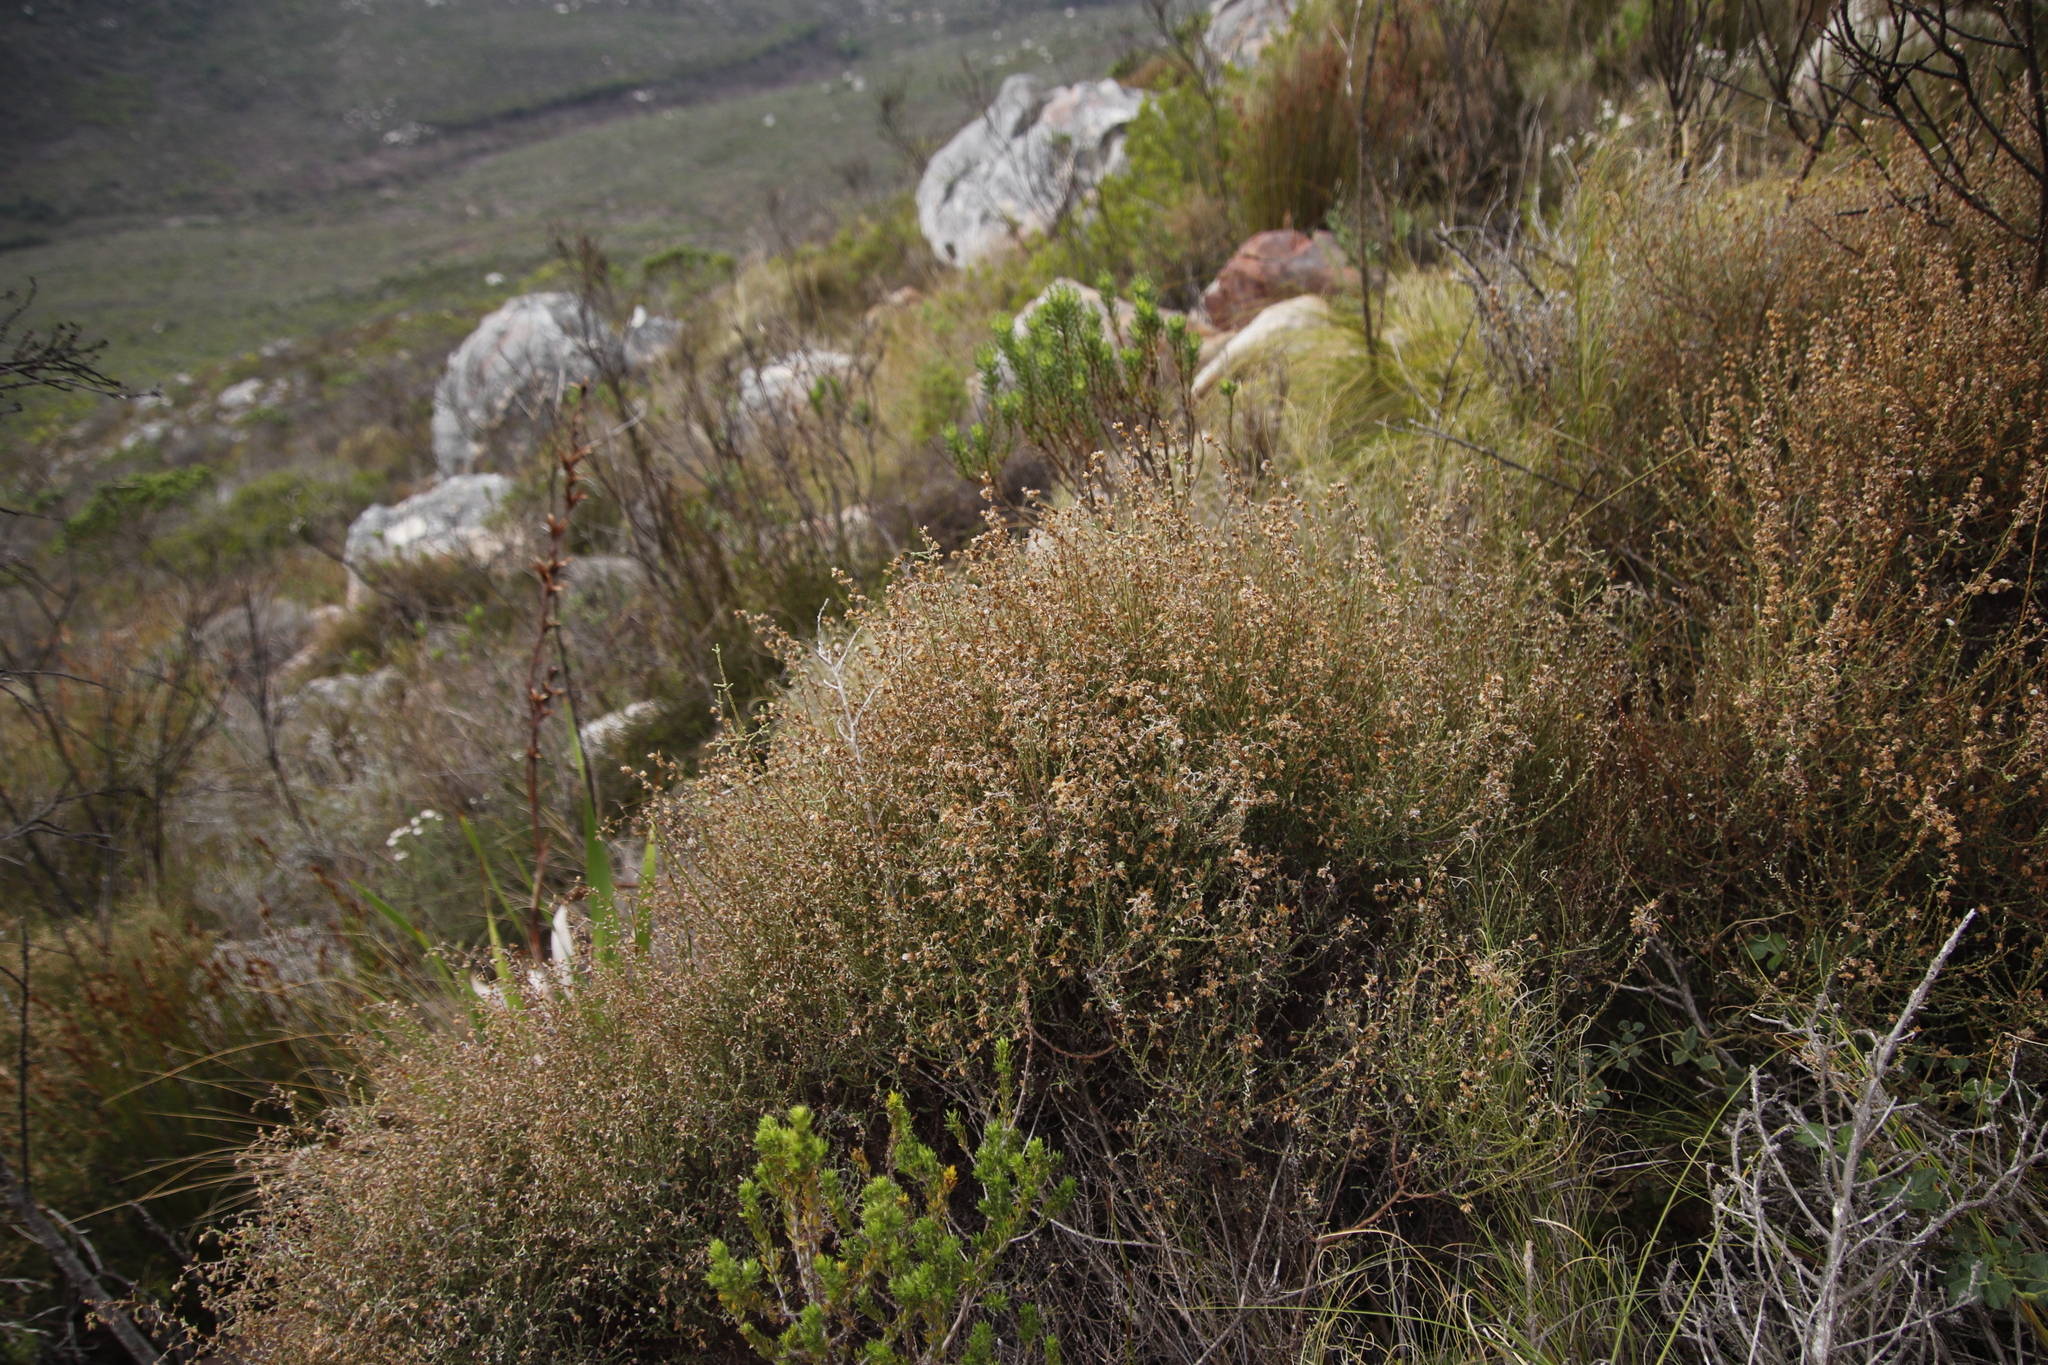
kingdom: Plantae
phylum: Tracheophyta
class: Magnoliopsida
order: Asterales
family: Asteraceae
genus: Myrovernix
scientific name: Myrovernix scaber
